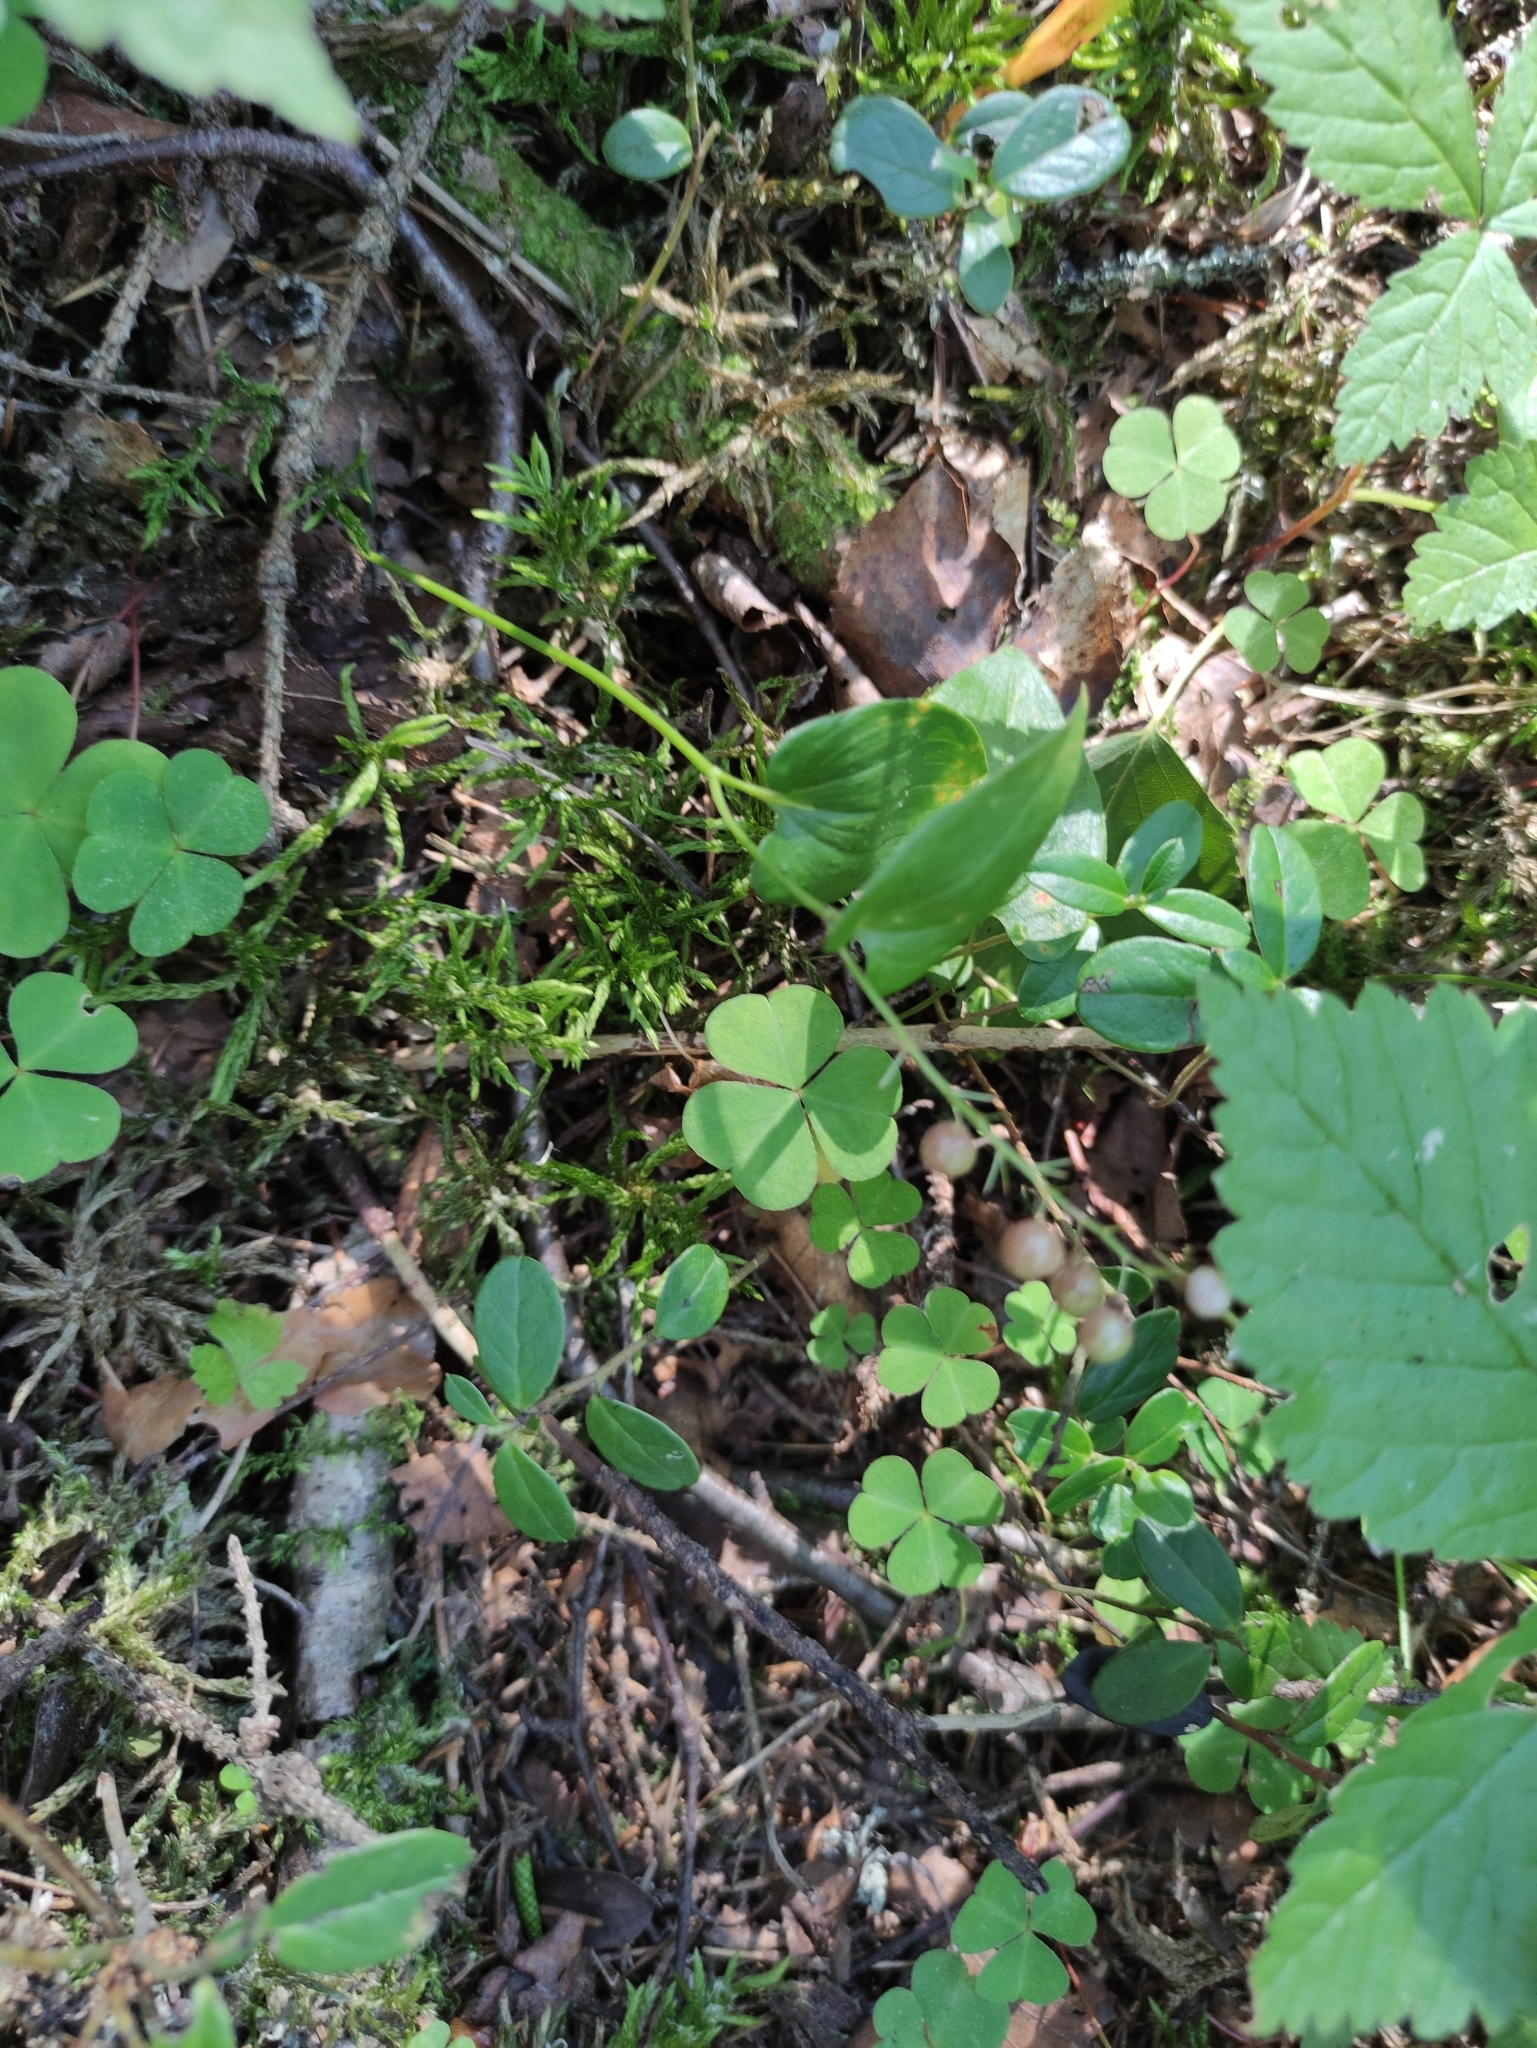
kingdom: Plantae
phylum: Tracheophyta
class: Liliopsida
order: Asparagales
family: Asparagaceae
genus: Maianthemum
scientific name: Maianthemum bifolium
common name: May lily
